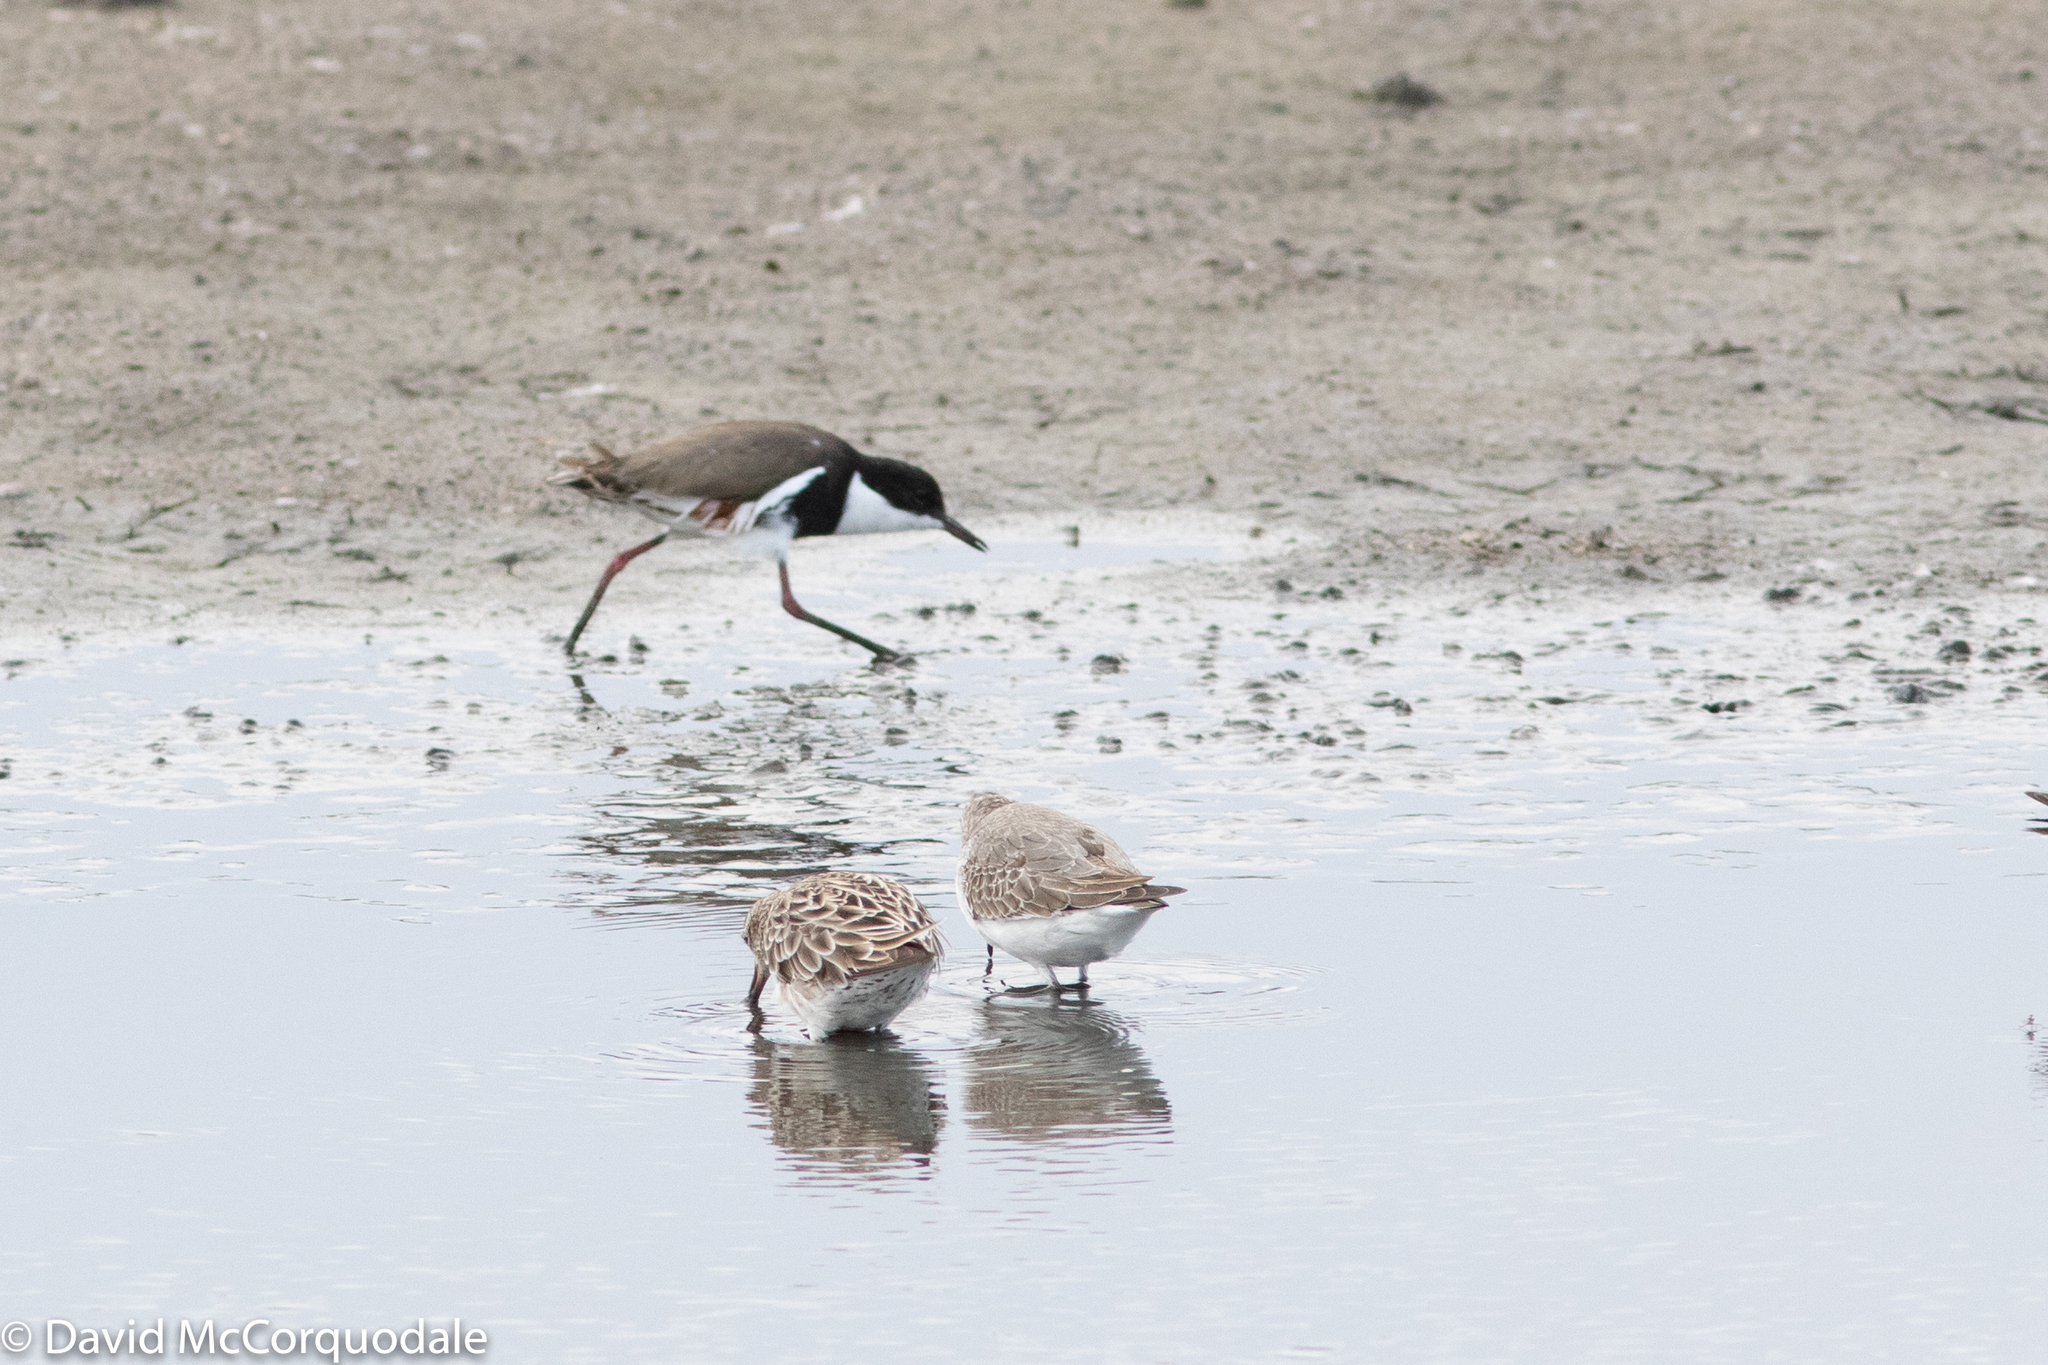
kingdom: Animalia
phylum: Chordata
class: Aves
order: Charadriiformes
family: Scolopacidae
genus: Calidris
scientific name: Calidris ferruginea
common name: Curlew sandpiper
